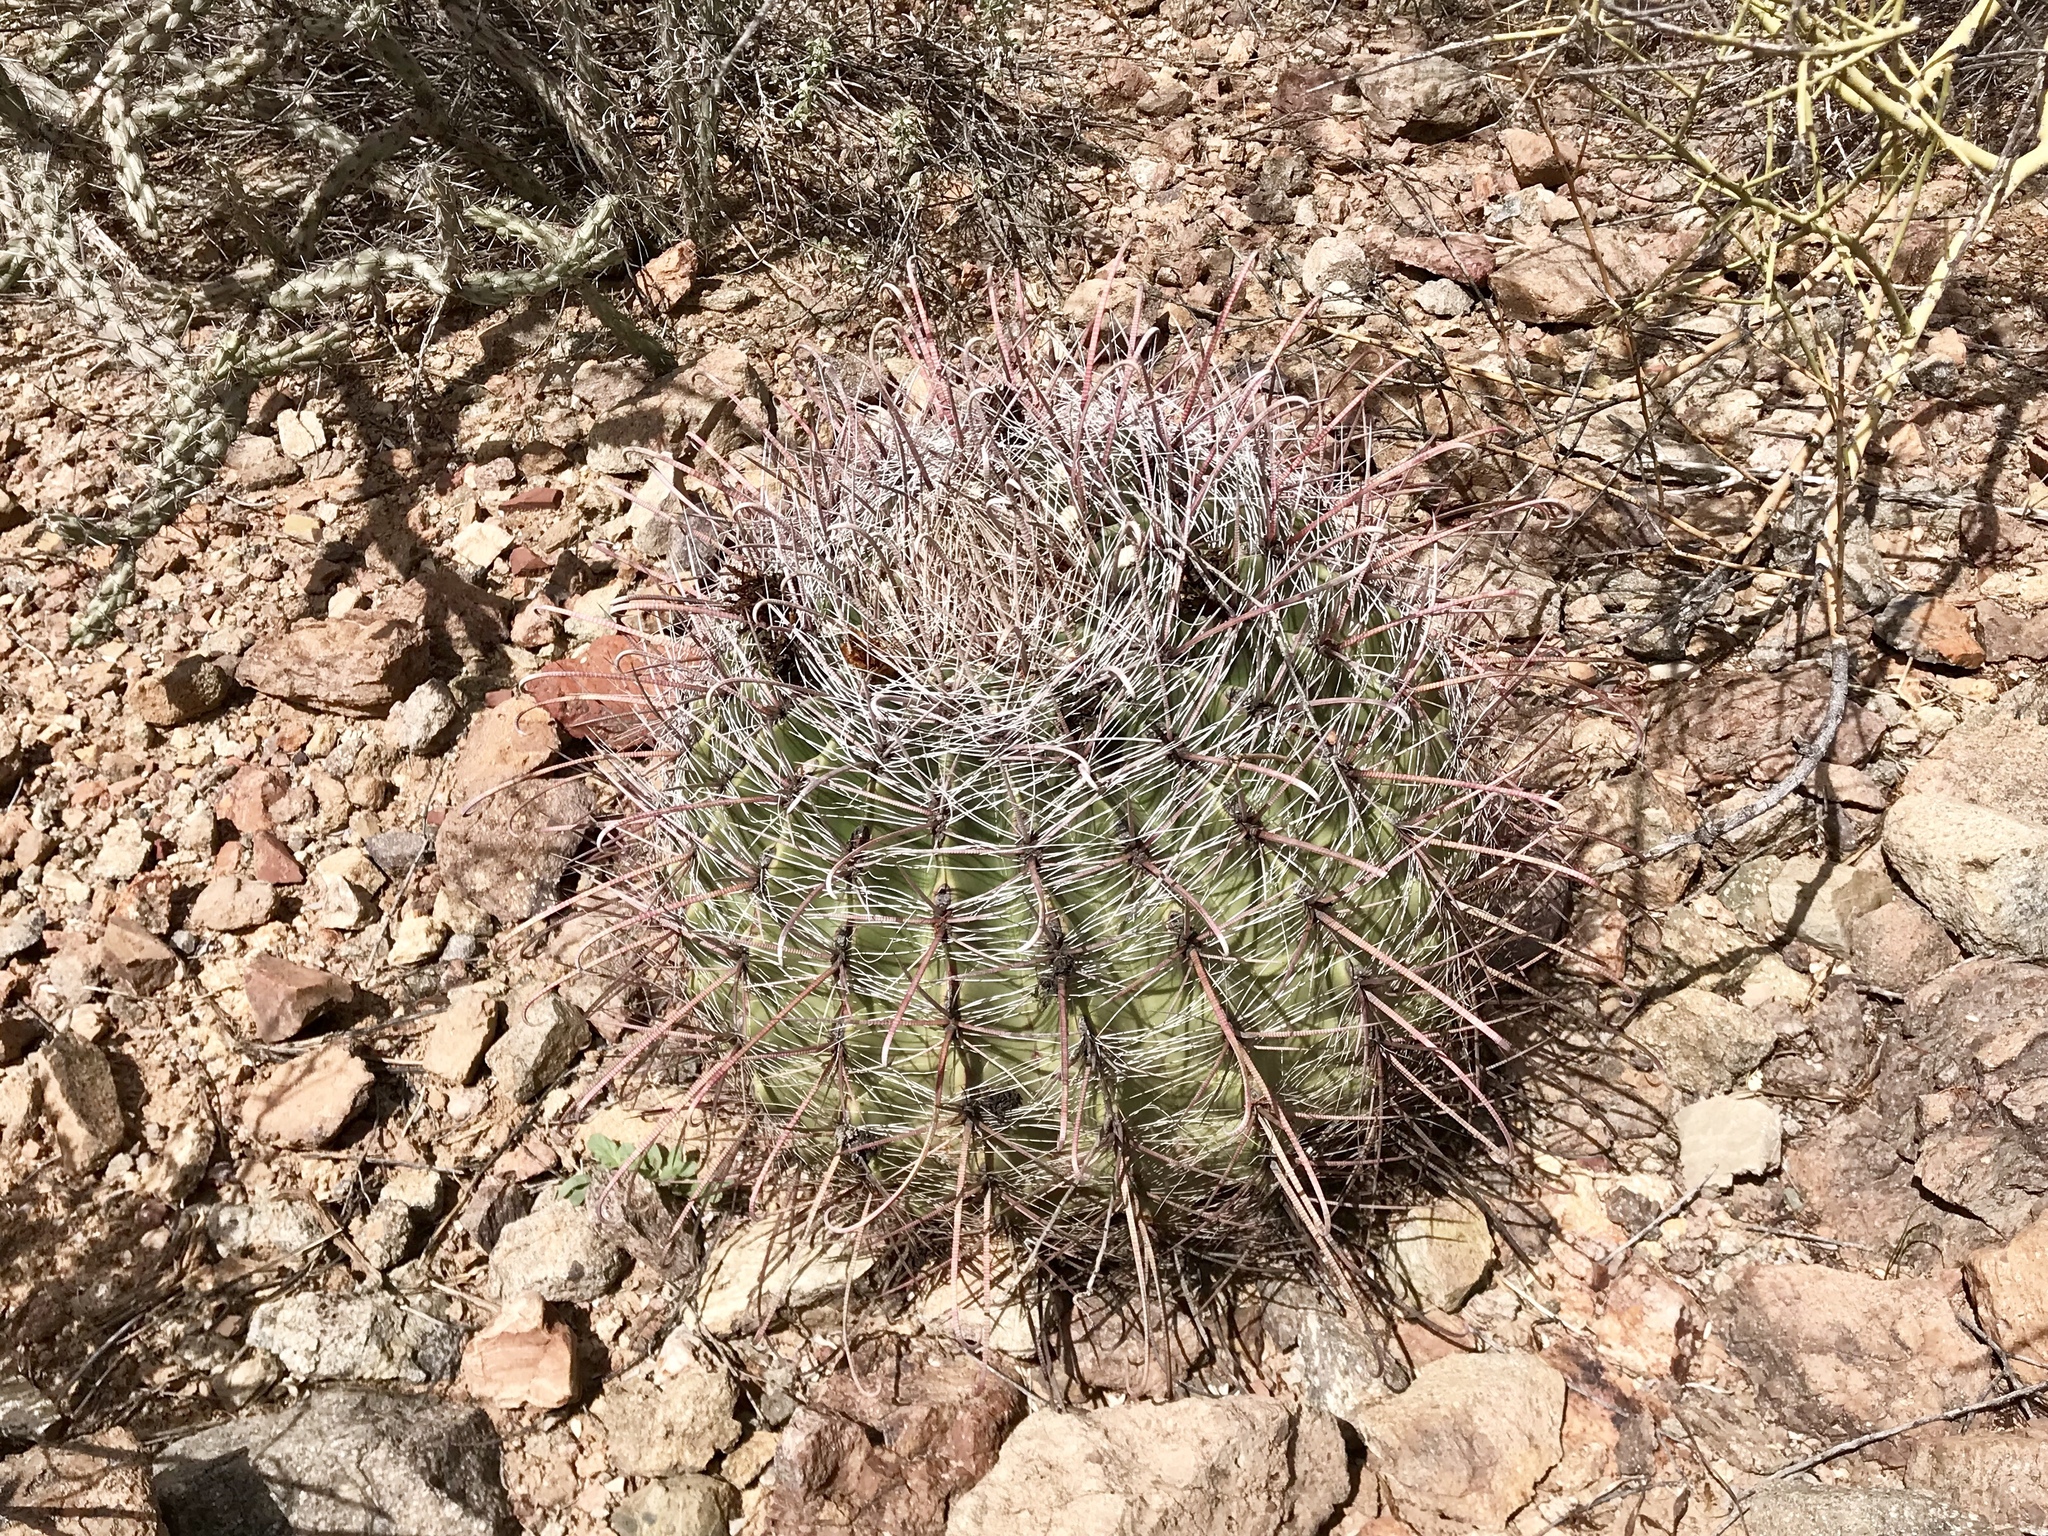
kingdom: Plantae
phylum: Tracheophyta
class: Magnoliopsida
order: Caryophyllales
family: Cactaceae
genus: Ferocactus
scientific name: Ferocactus wislizeni
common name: Candy barrel cactus
